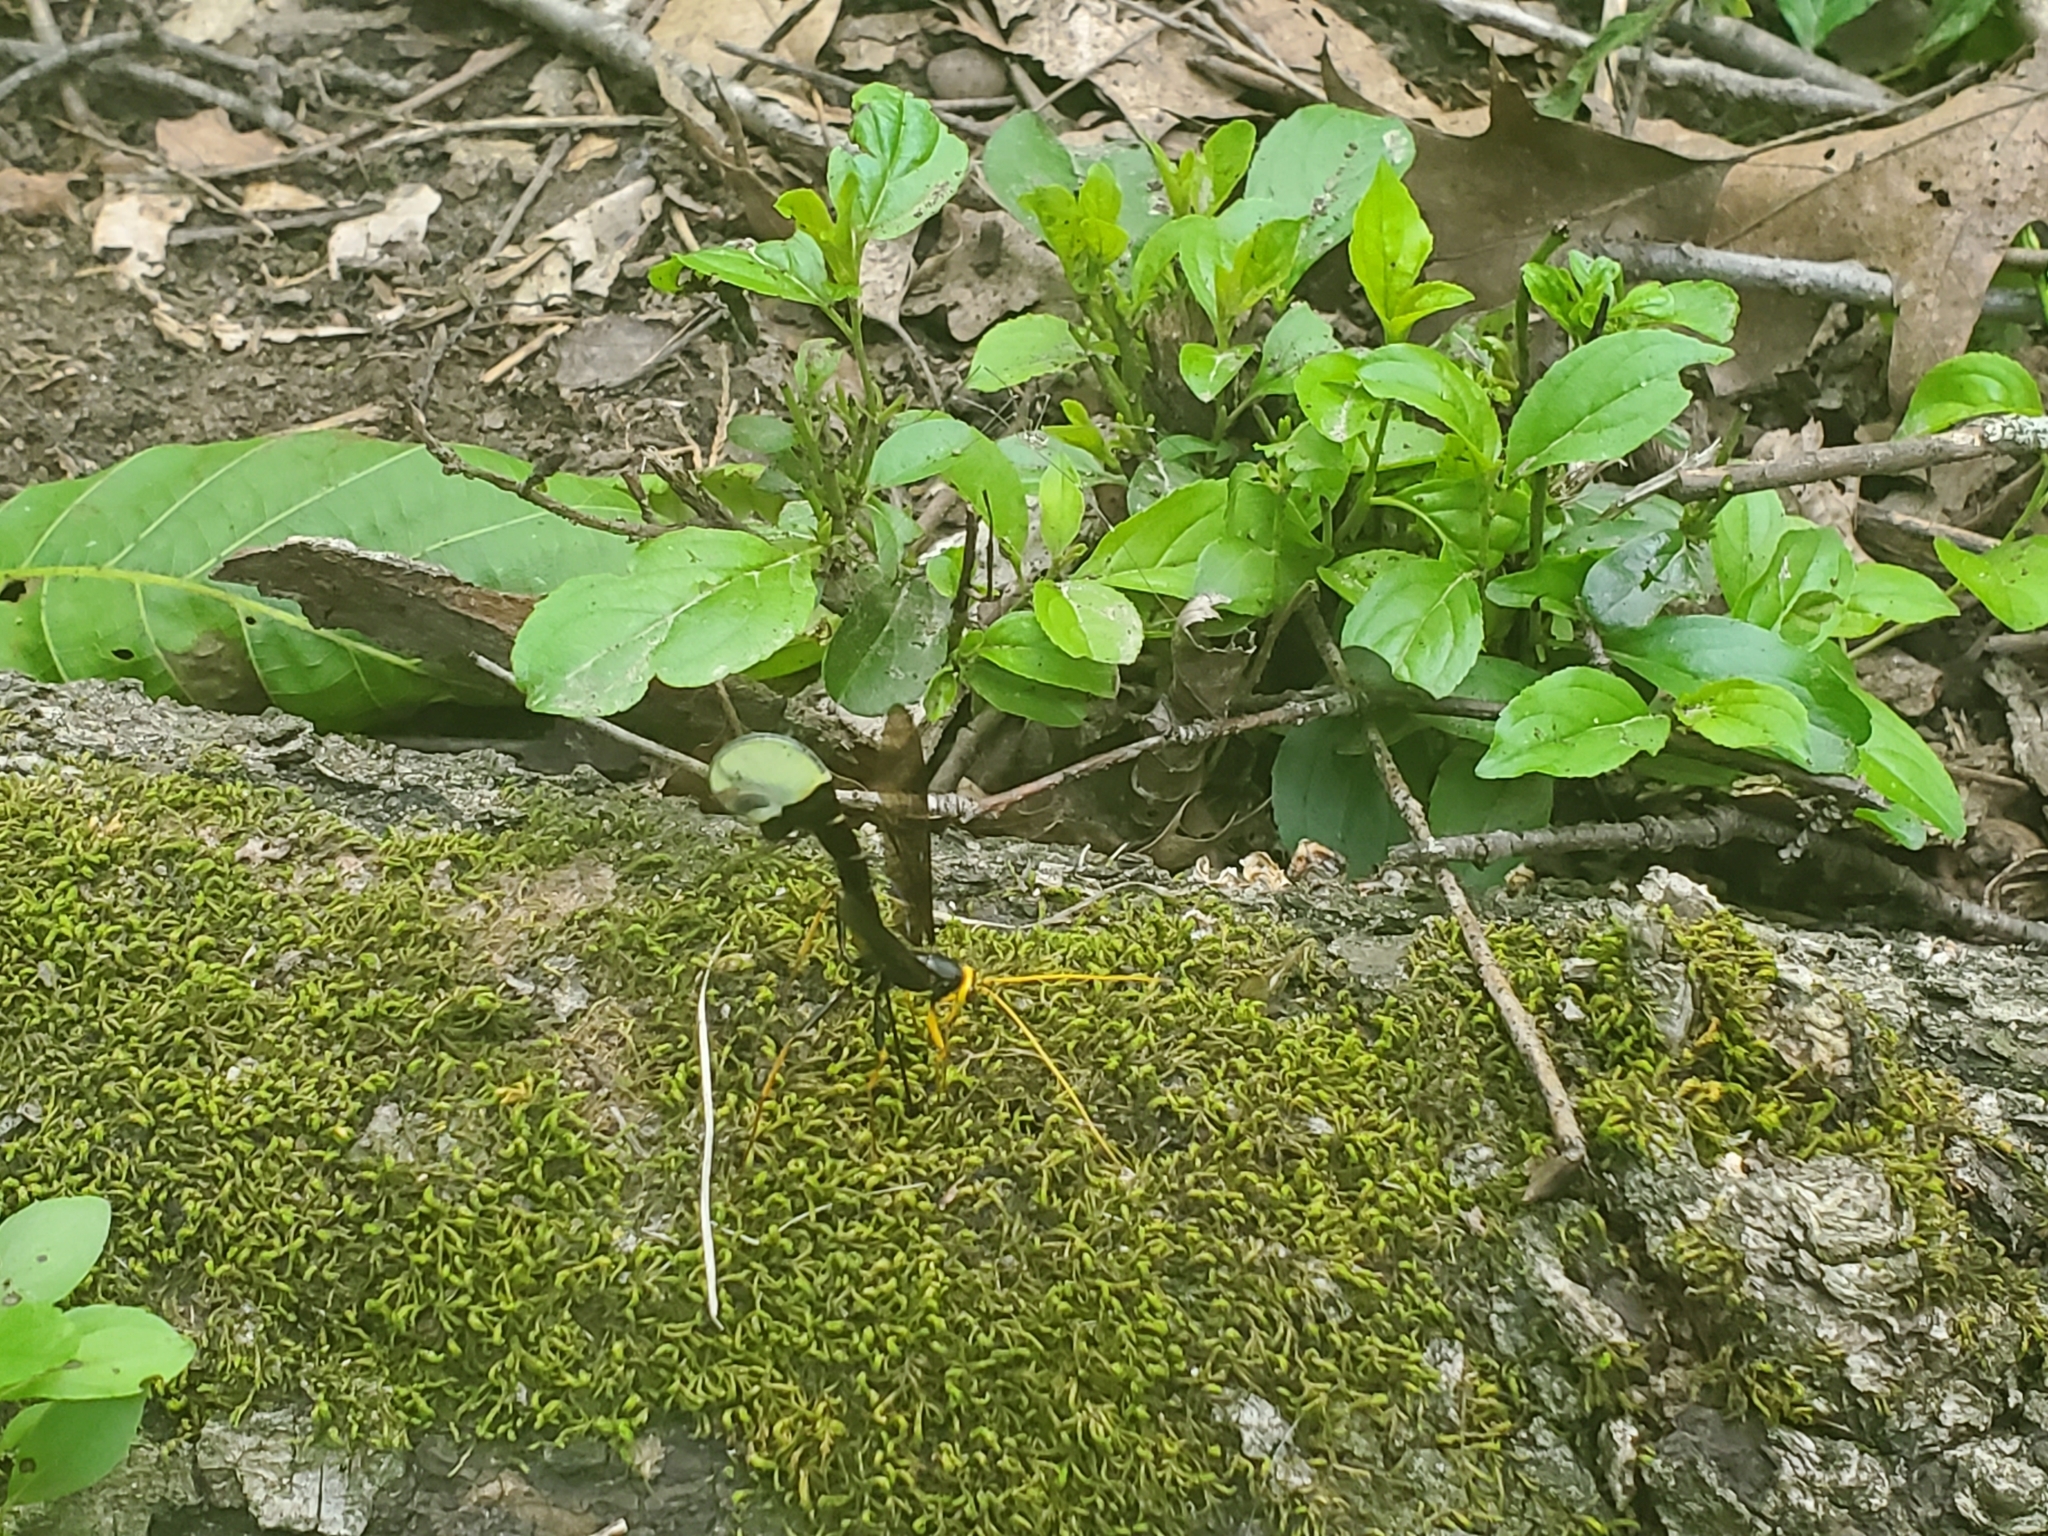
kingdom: Animalia
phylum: Arthropoda
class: Insecta
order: Hymenoptera
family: Ichneumonidae
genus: Megarhyssa
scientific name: Megarhyssa atrata
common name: Black giant ichneumonid wasp
